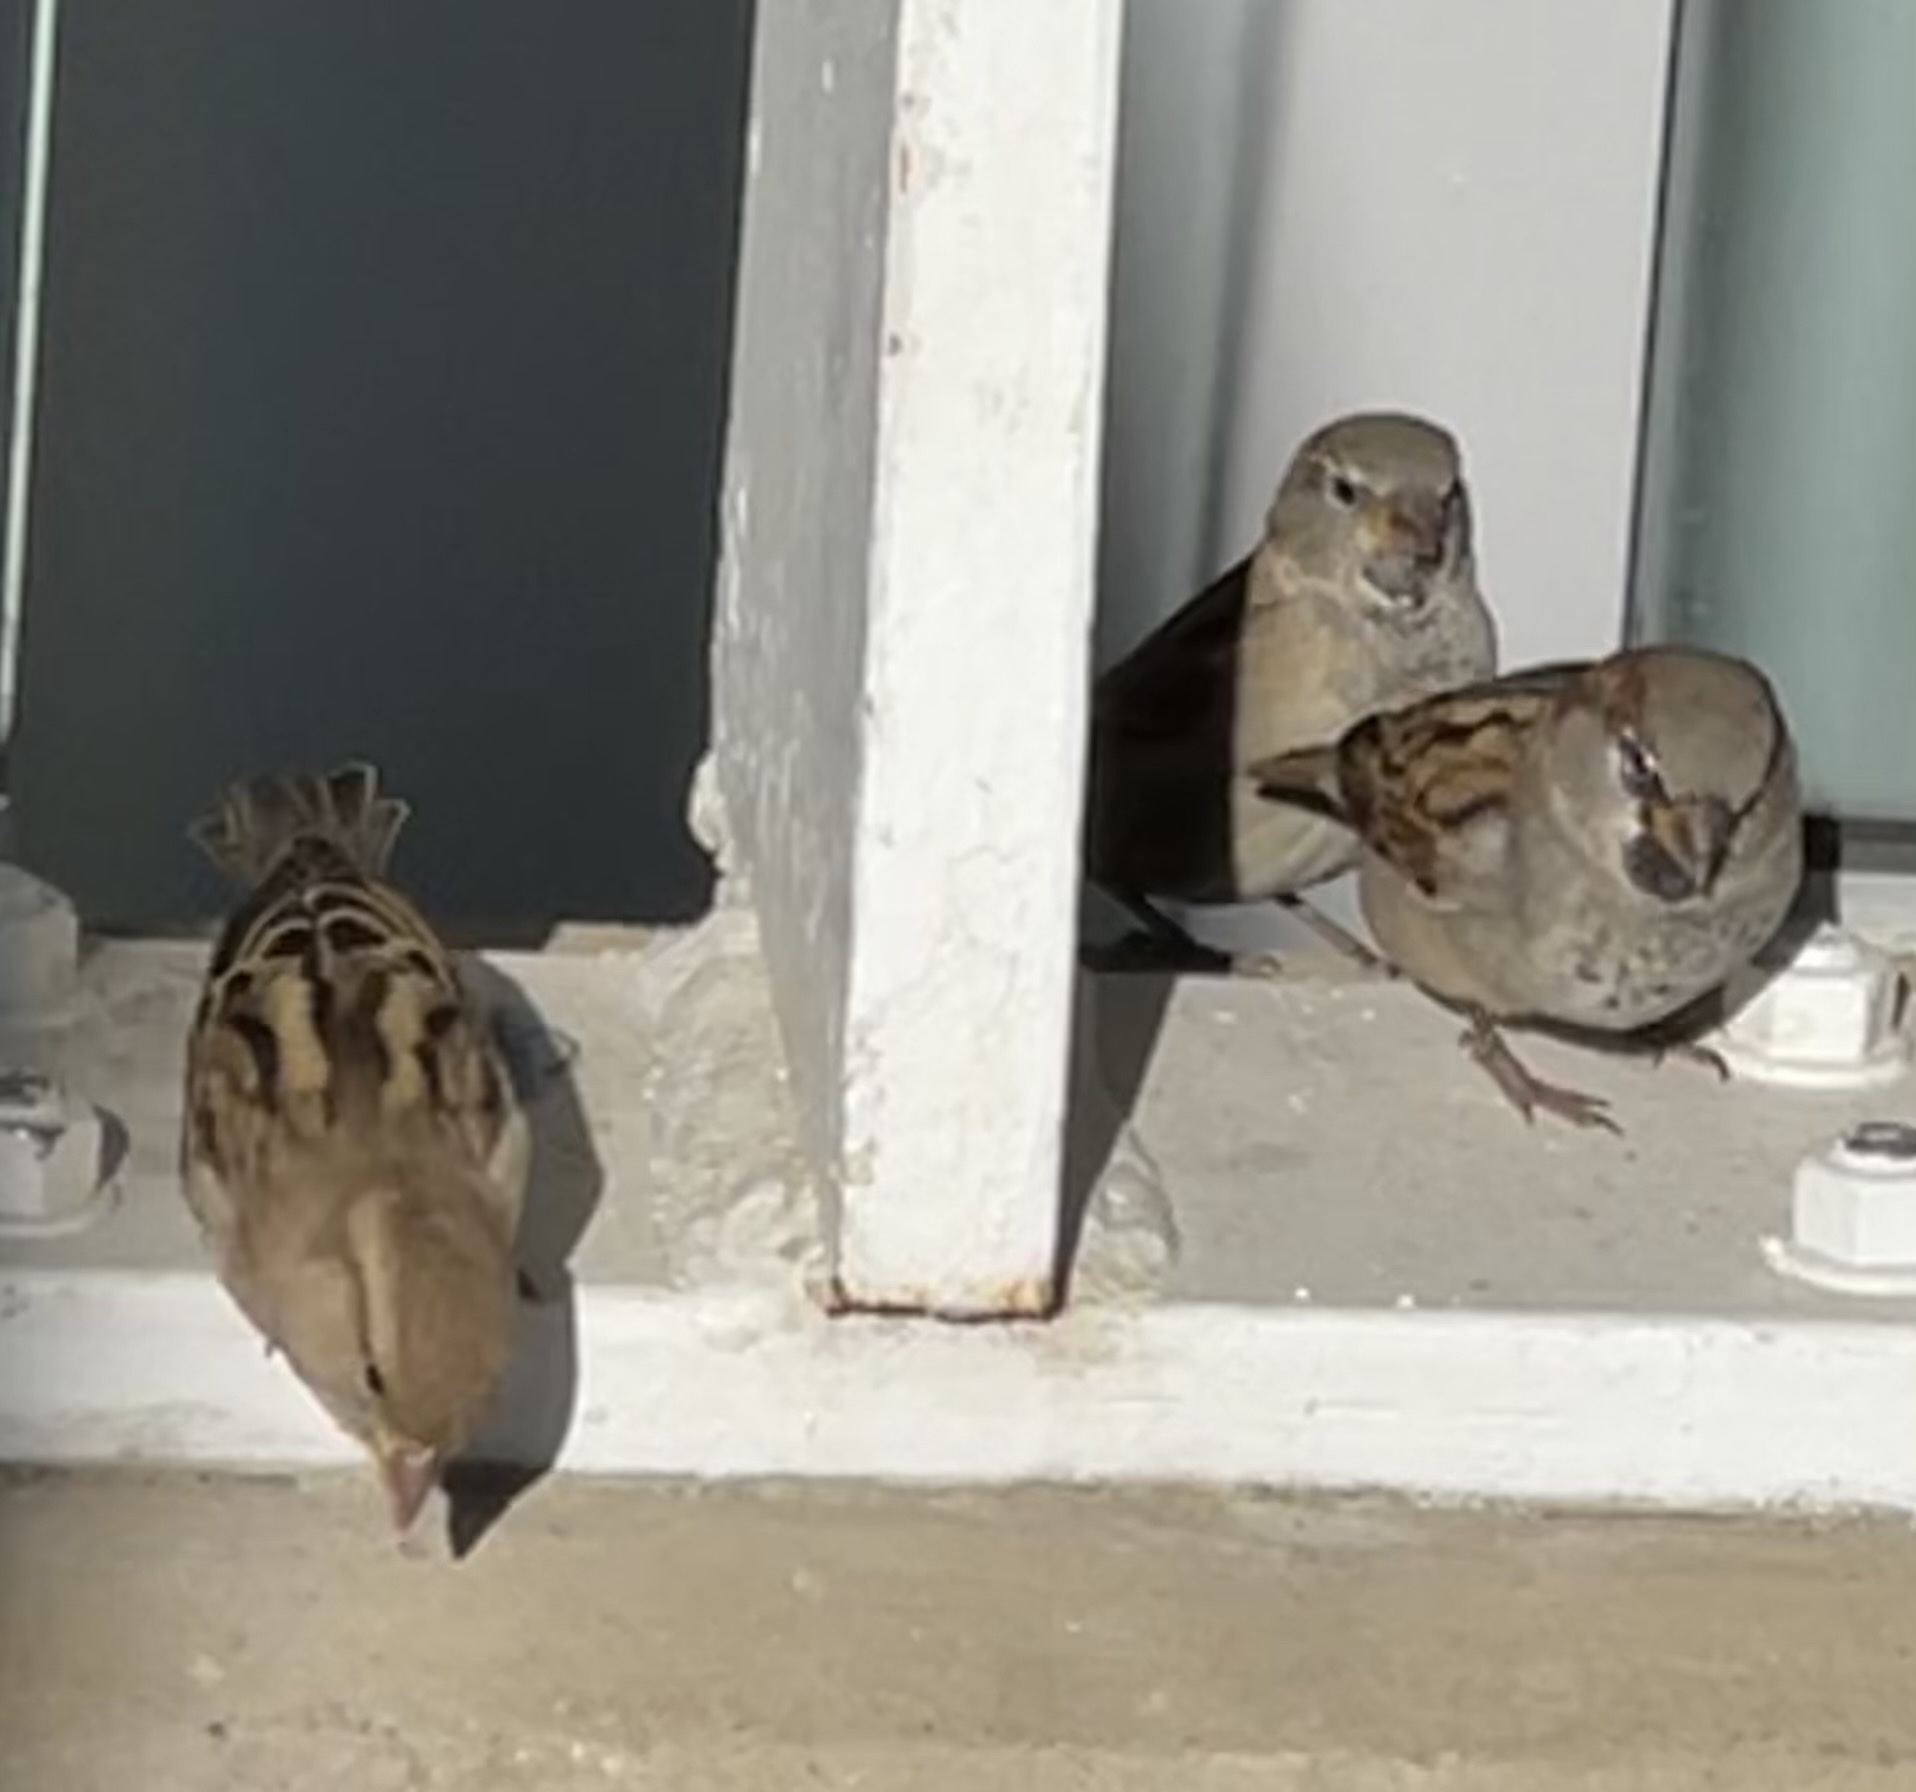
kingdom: Animalia
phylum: Chordata
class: Aves
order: Passeriformes
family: Passeridae
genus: Passer
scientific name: Passer domesticus
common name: House sparrow
